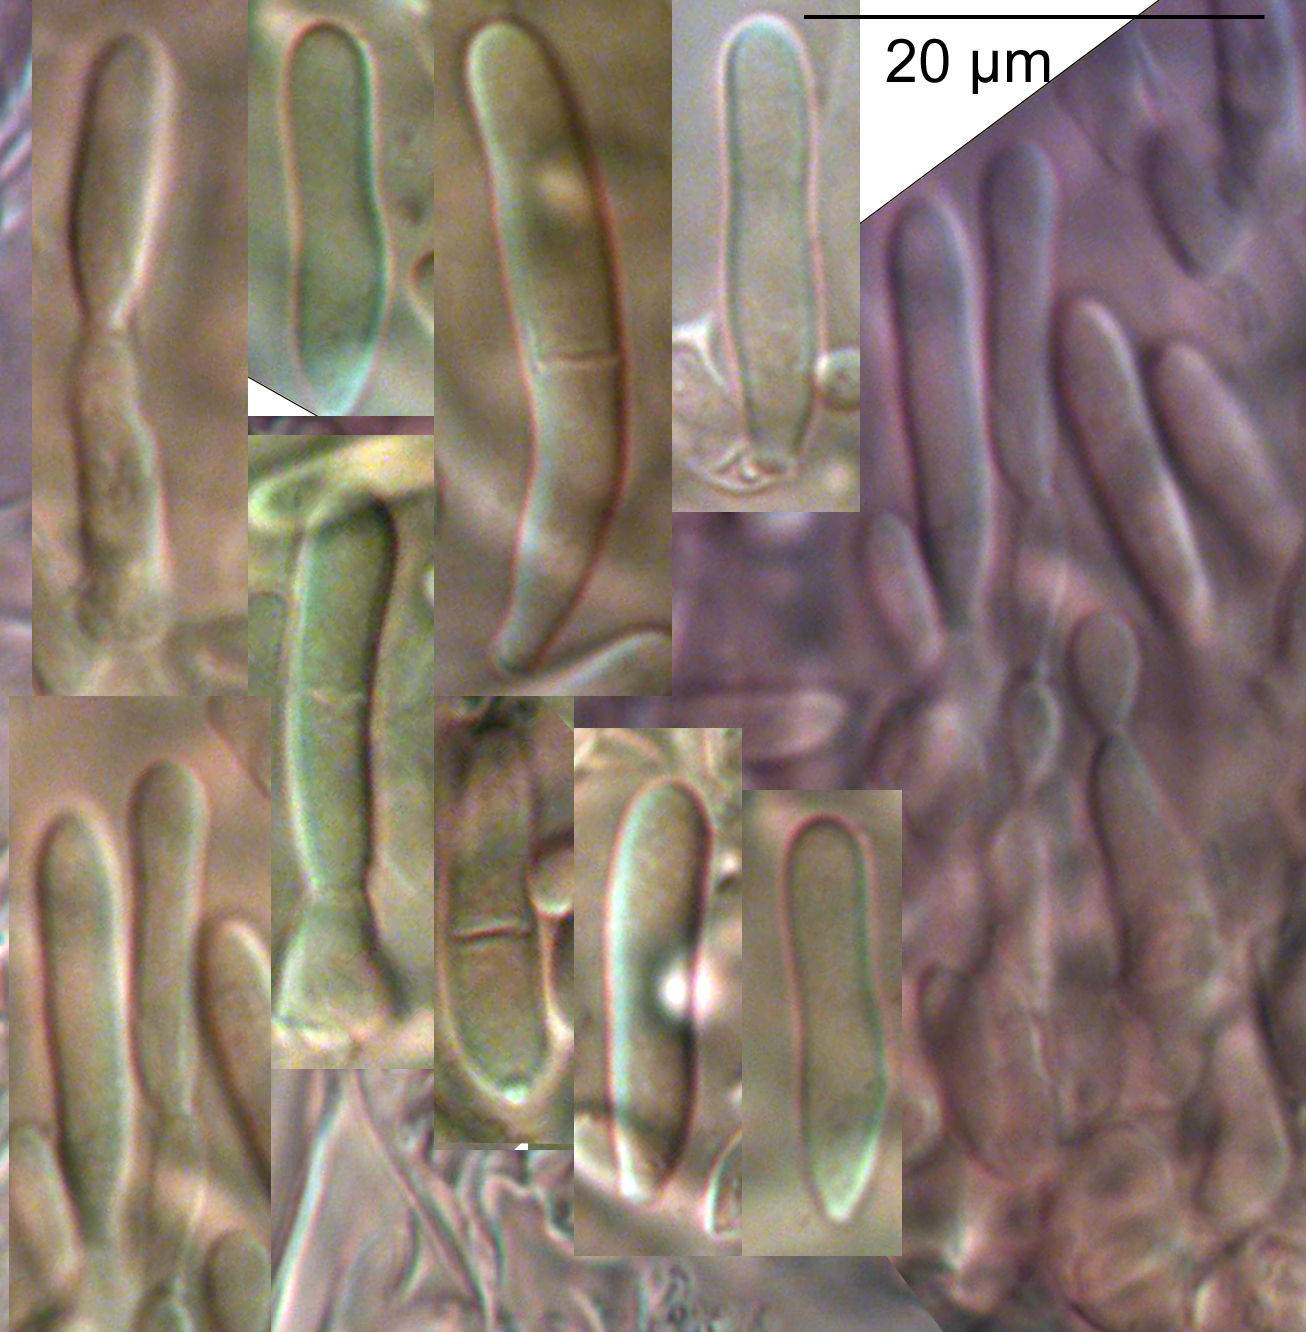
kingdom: Fungi
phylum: Ascomycota
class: Dothideomycetes
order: Mycosphaerellales
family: Mycosphaerellaceae
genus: Septoria
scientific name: Septoria matthiolae
